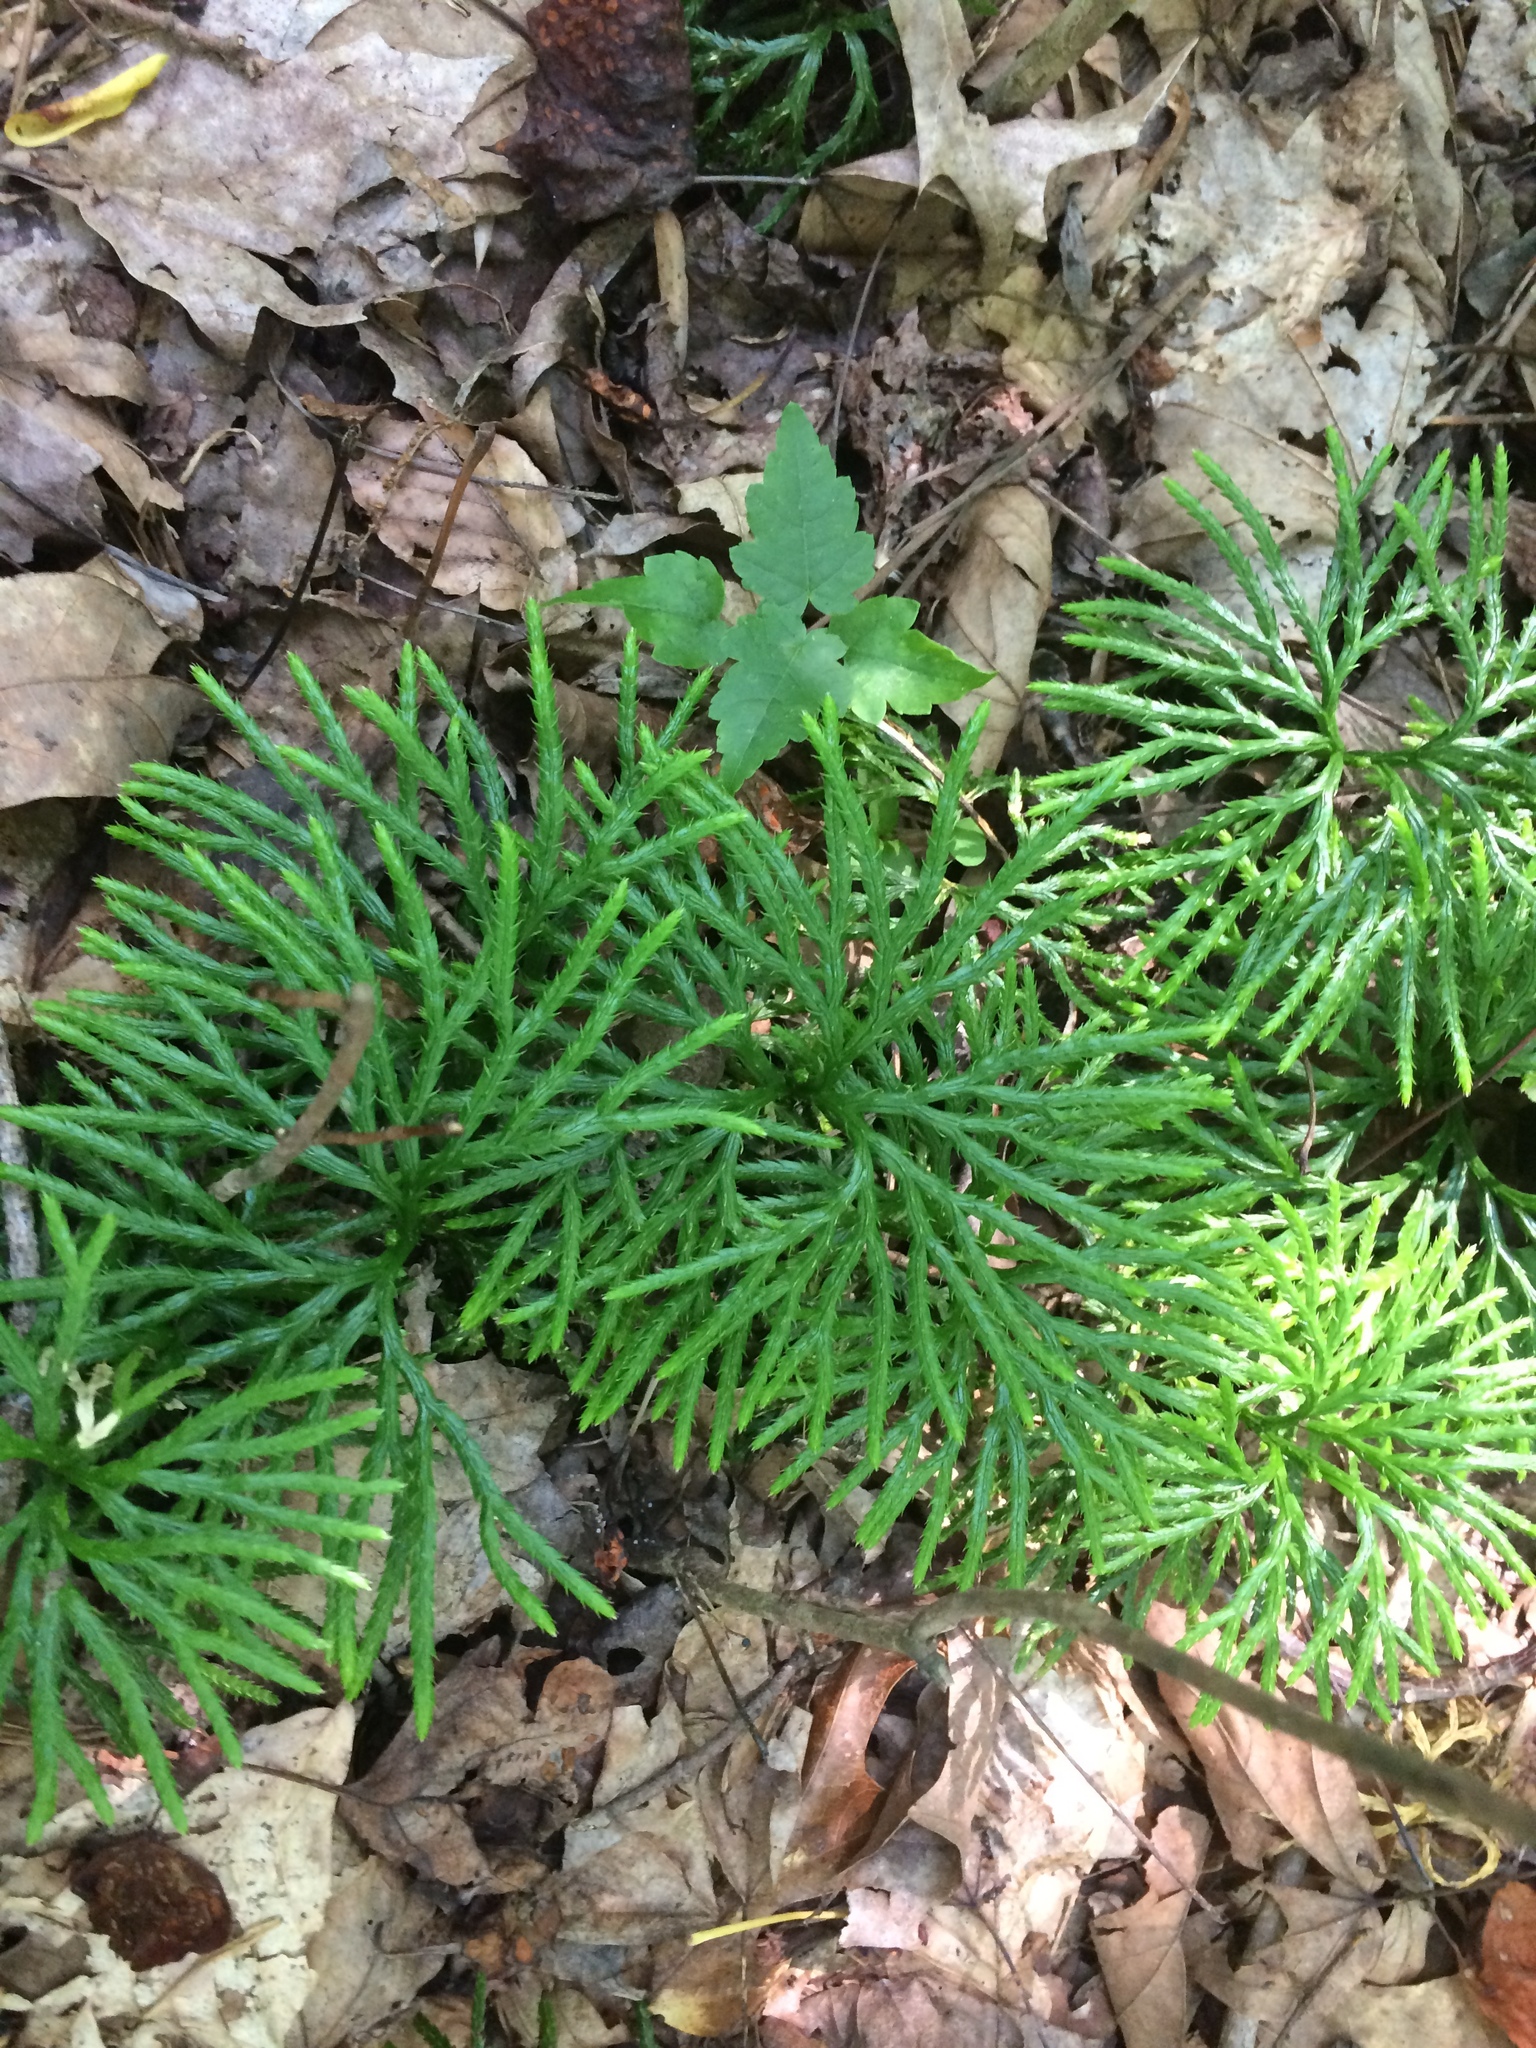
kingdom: Plantae
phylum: Tracheophyta
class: Lycopodiopsida
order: Lycopodiales
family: Lycopodiaceae
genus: Diphasiastrum
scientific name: Diphasiastrum digitatum
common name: Southern running-pine
